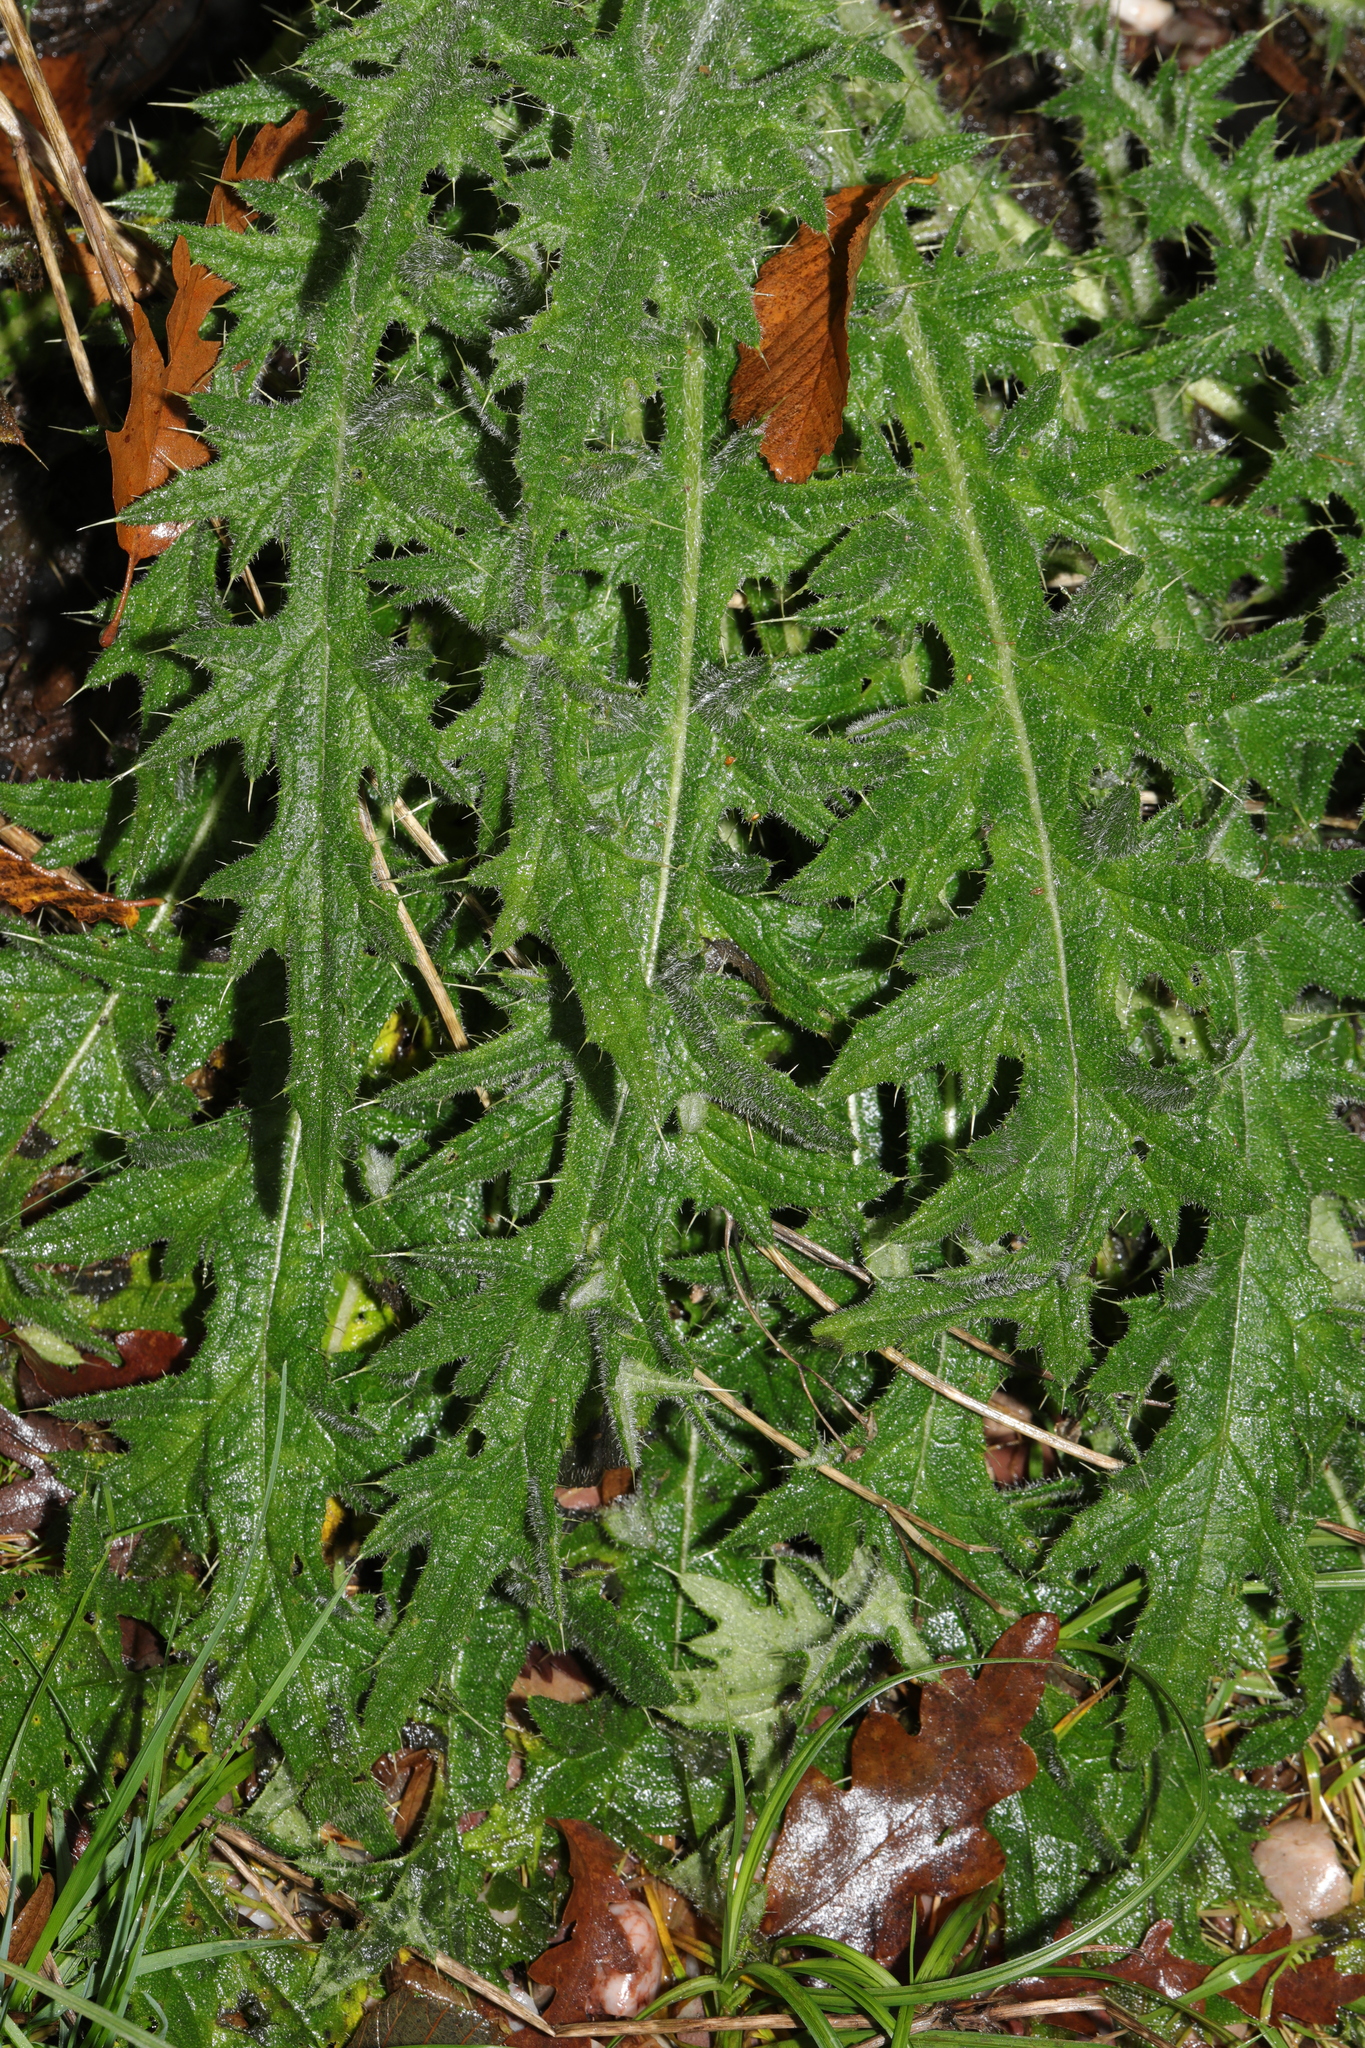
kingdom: Plantae
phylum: Tracheophyta
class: Magnoliopsida
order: Asterales
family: Asteraceae
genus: Cirsium
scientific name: Cirsium vulgare
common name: Bull thistle
